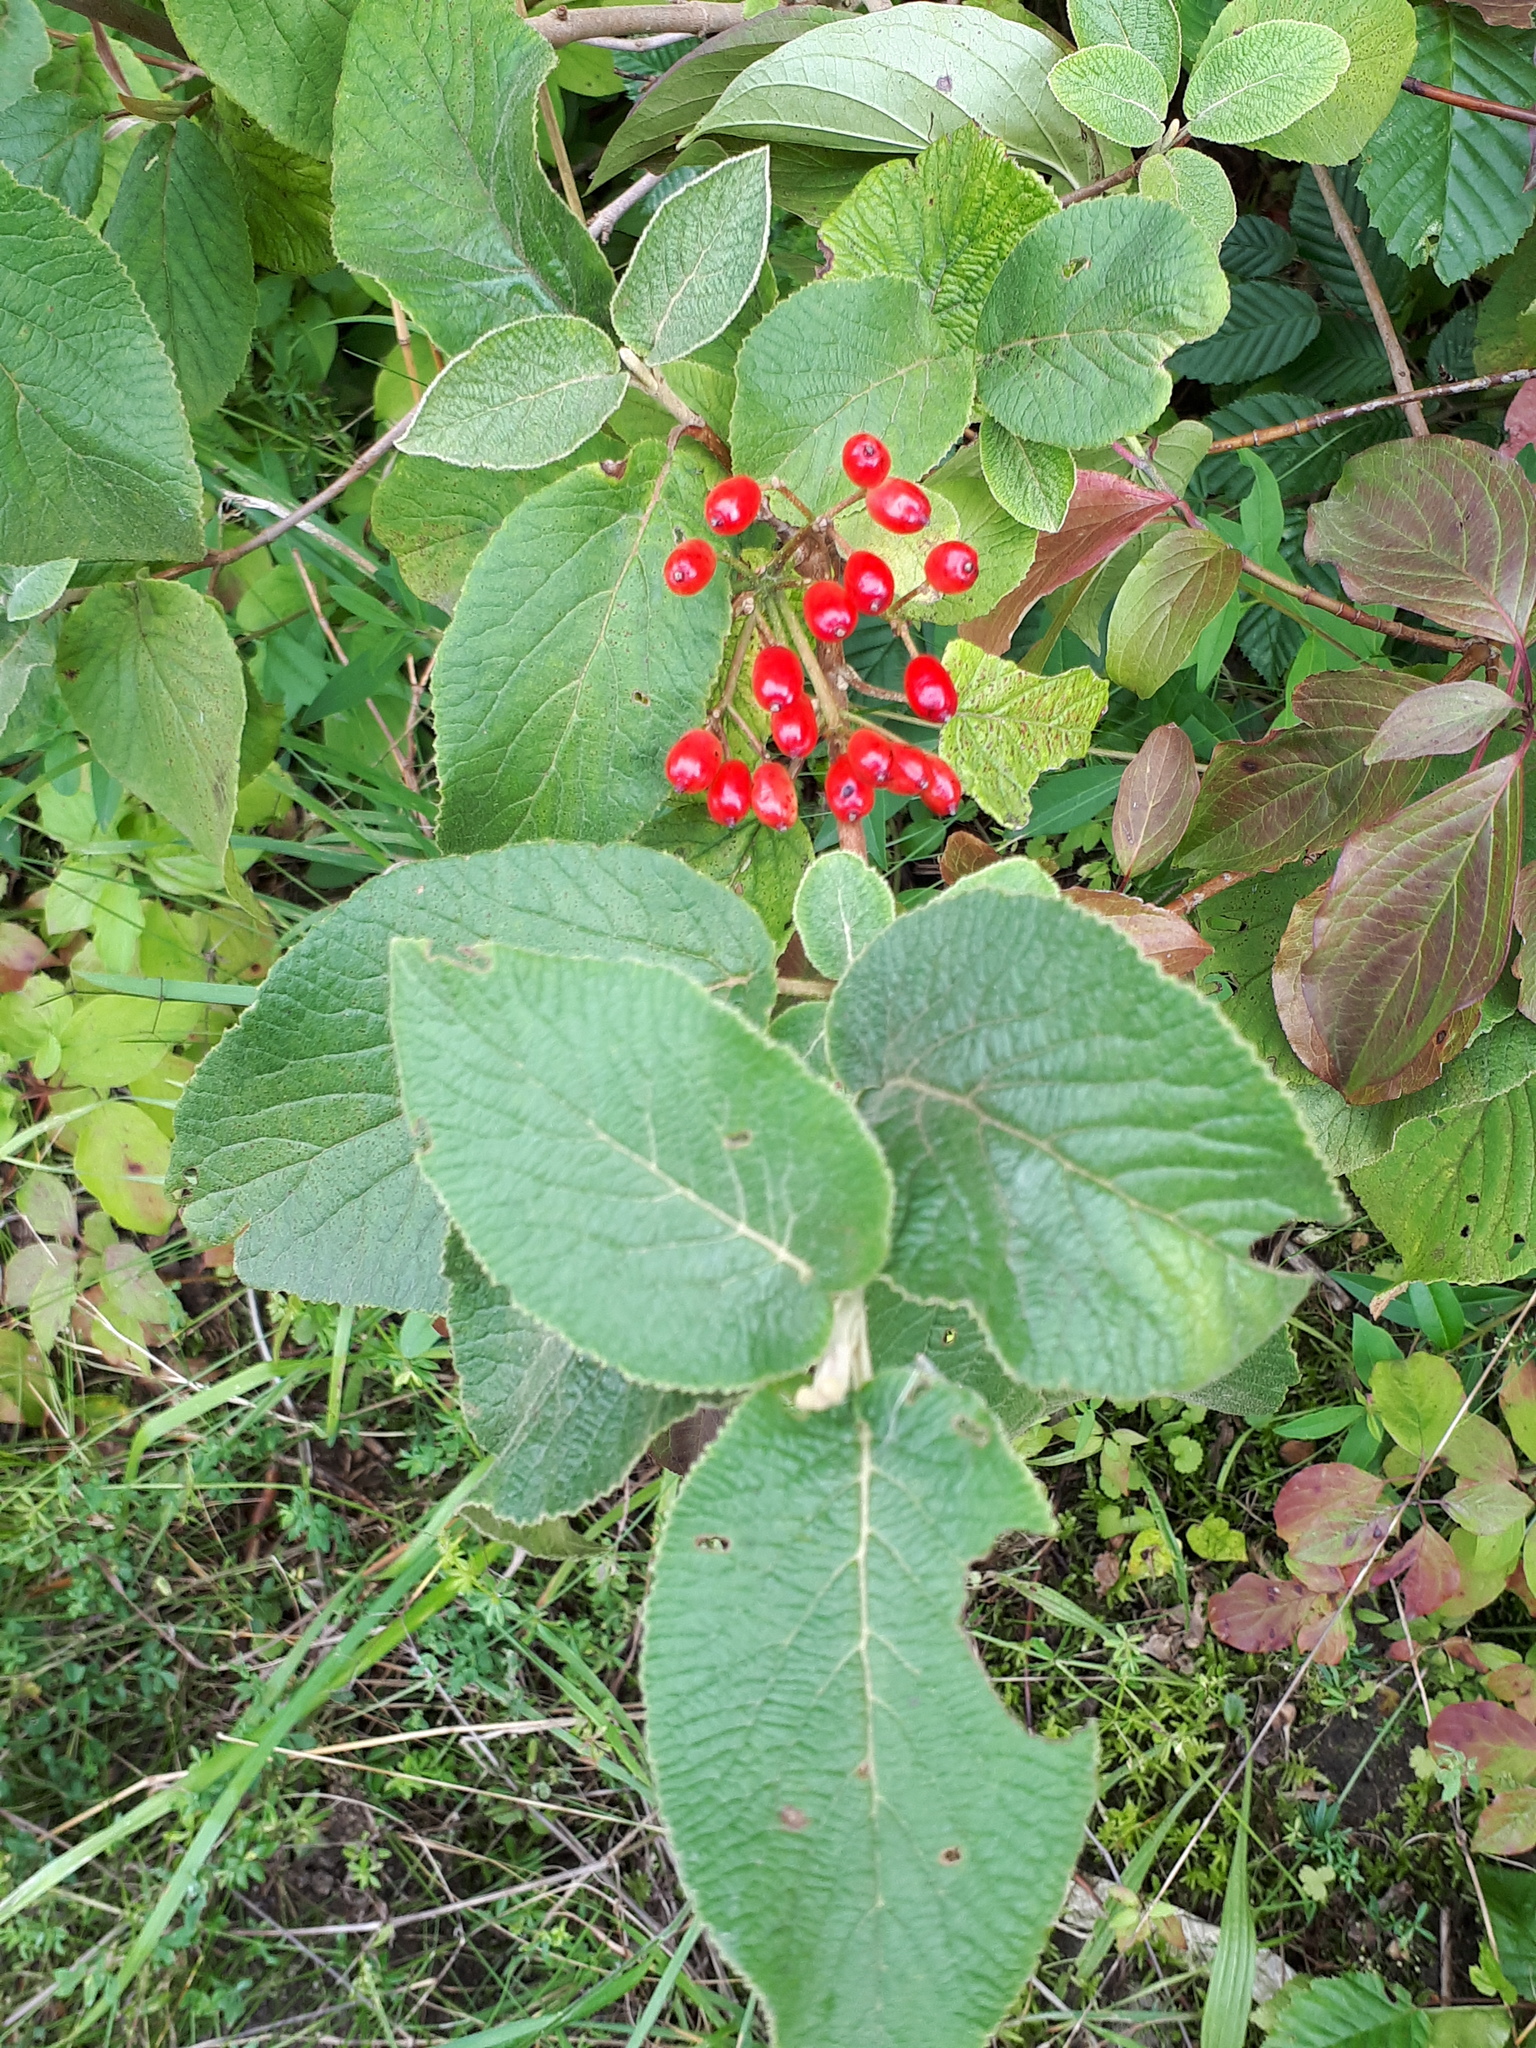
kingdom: Plantae
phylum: Tracheophyta
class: Magnoliopsida
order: Dipsacales
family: Viburnaceae
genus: Viburnum
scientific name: Viburnum lantana
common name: Wayfaring tree
